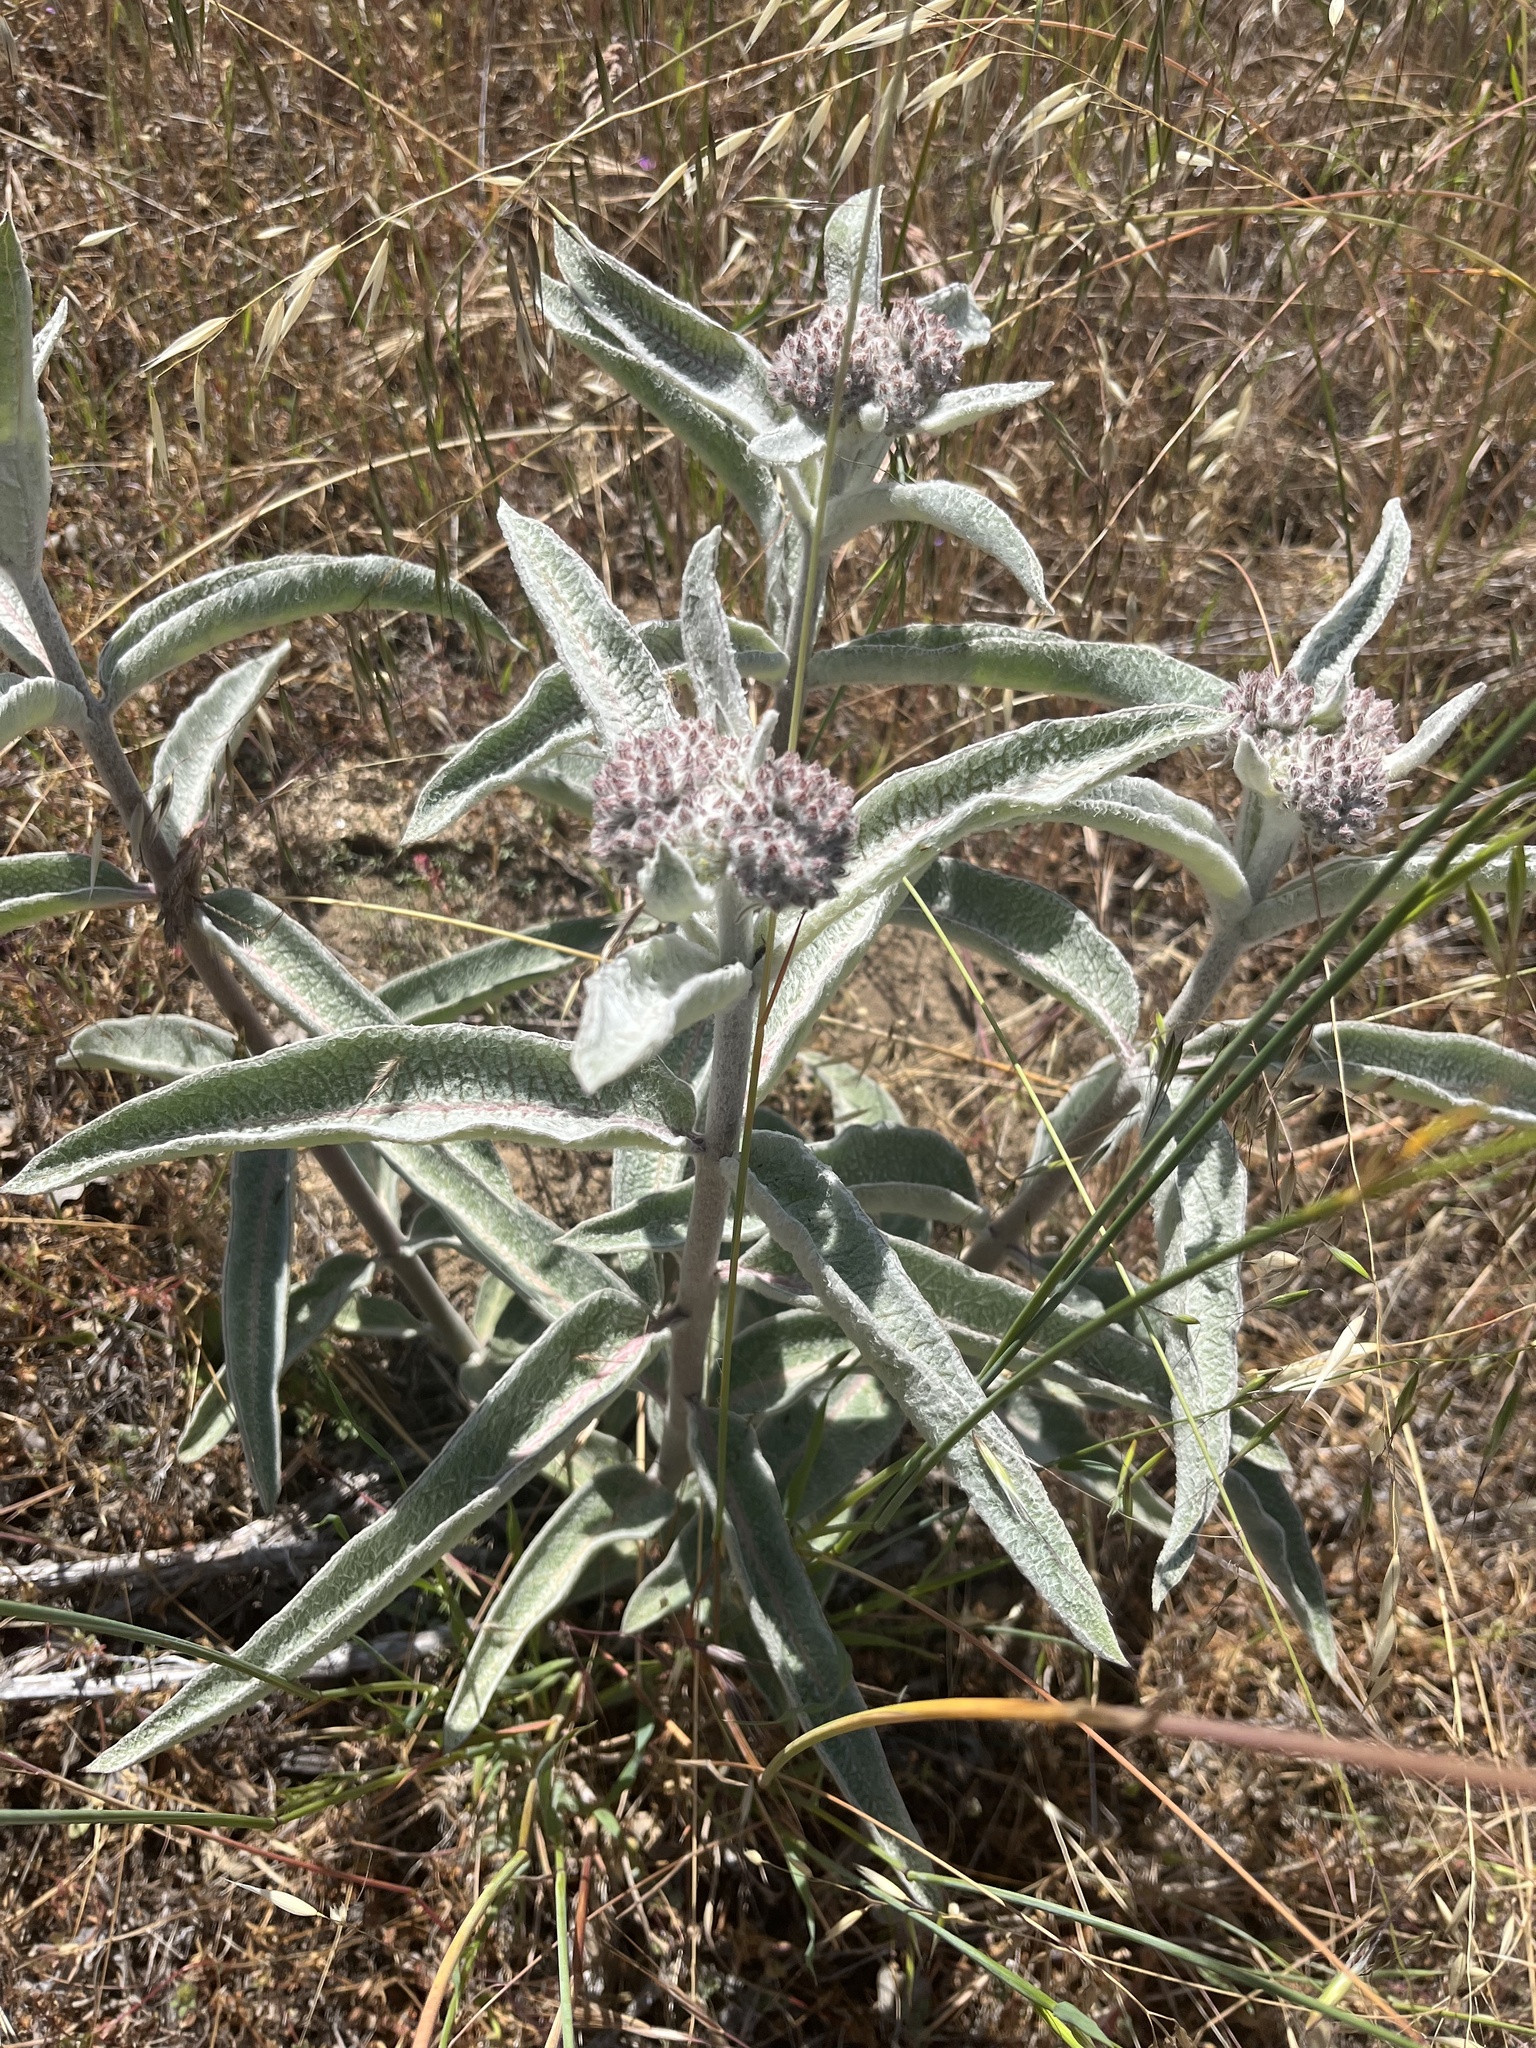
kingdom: Plantae
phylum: Tracheophyta
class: Magnoliopsida
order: Gentianales
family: Apocynaceae
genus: Asclepias
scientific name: Asclepias eriocarpa
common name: Indian milkweed
